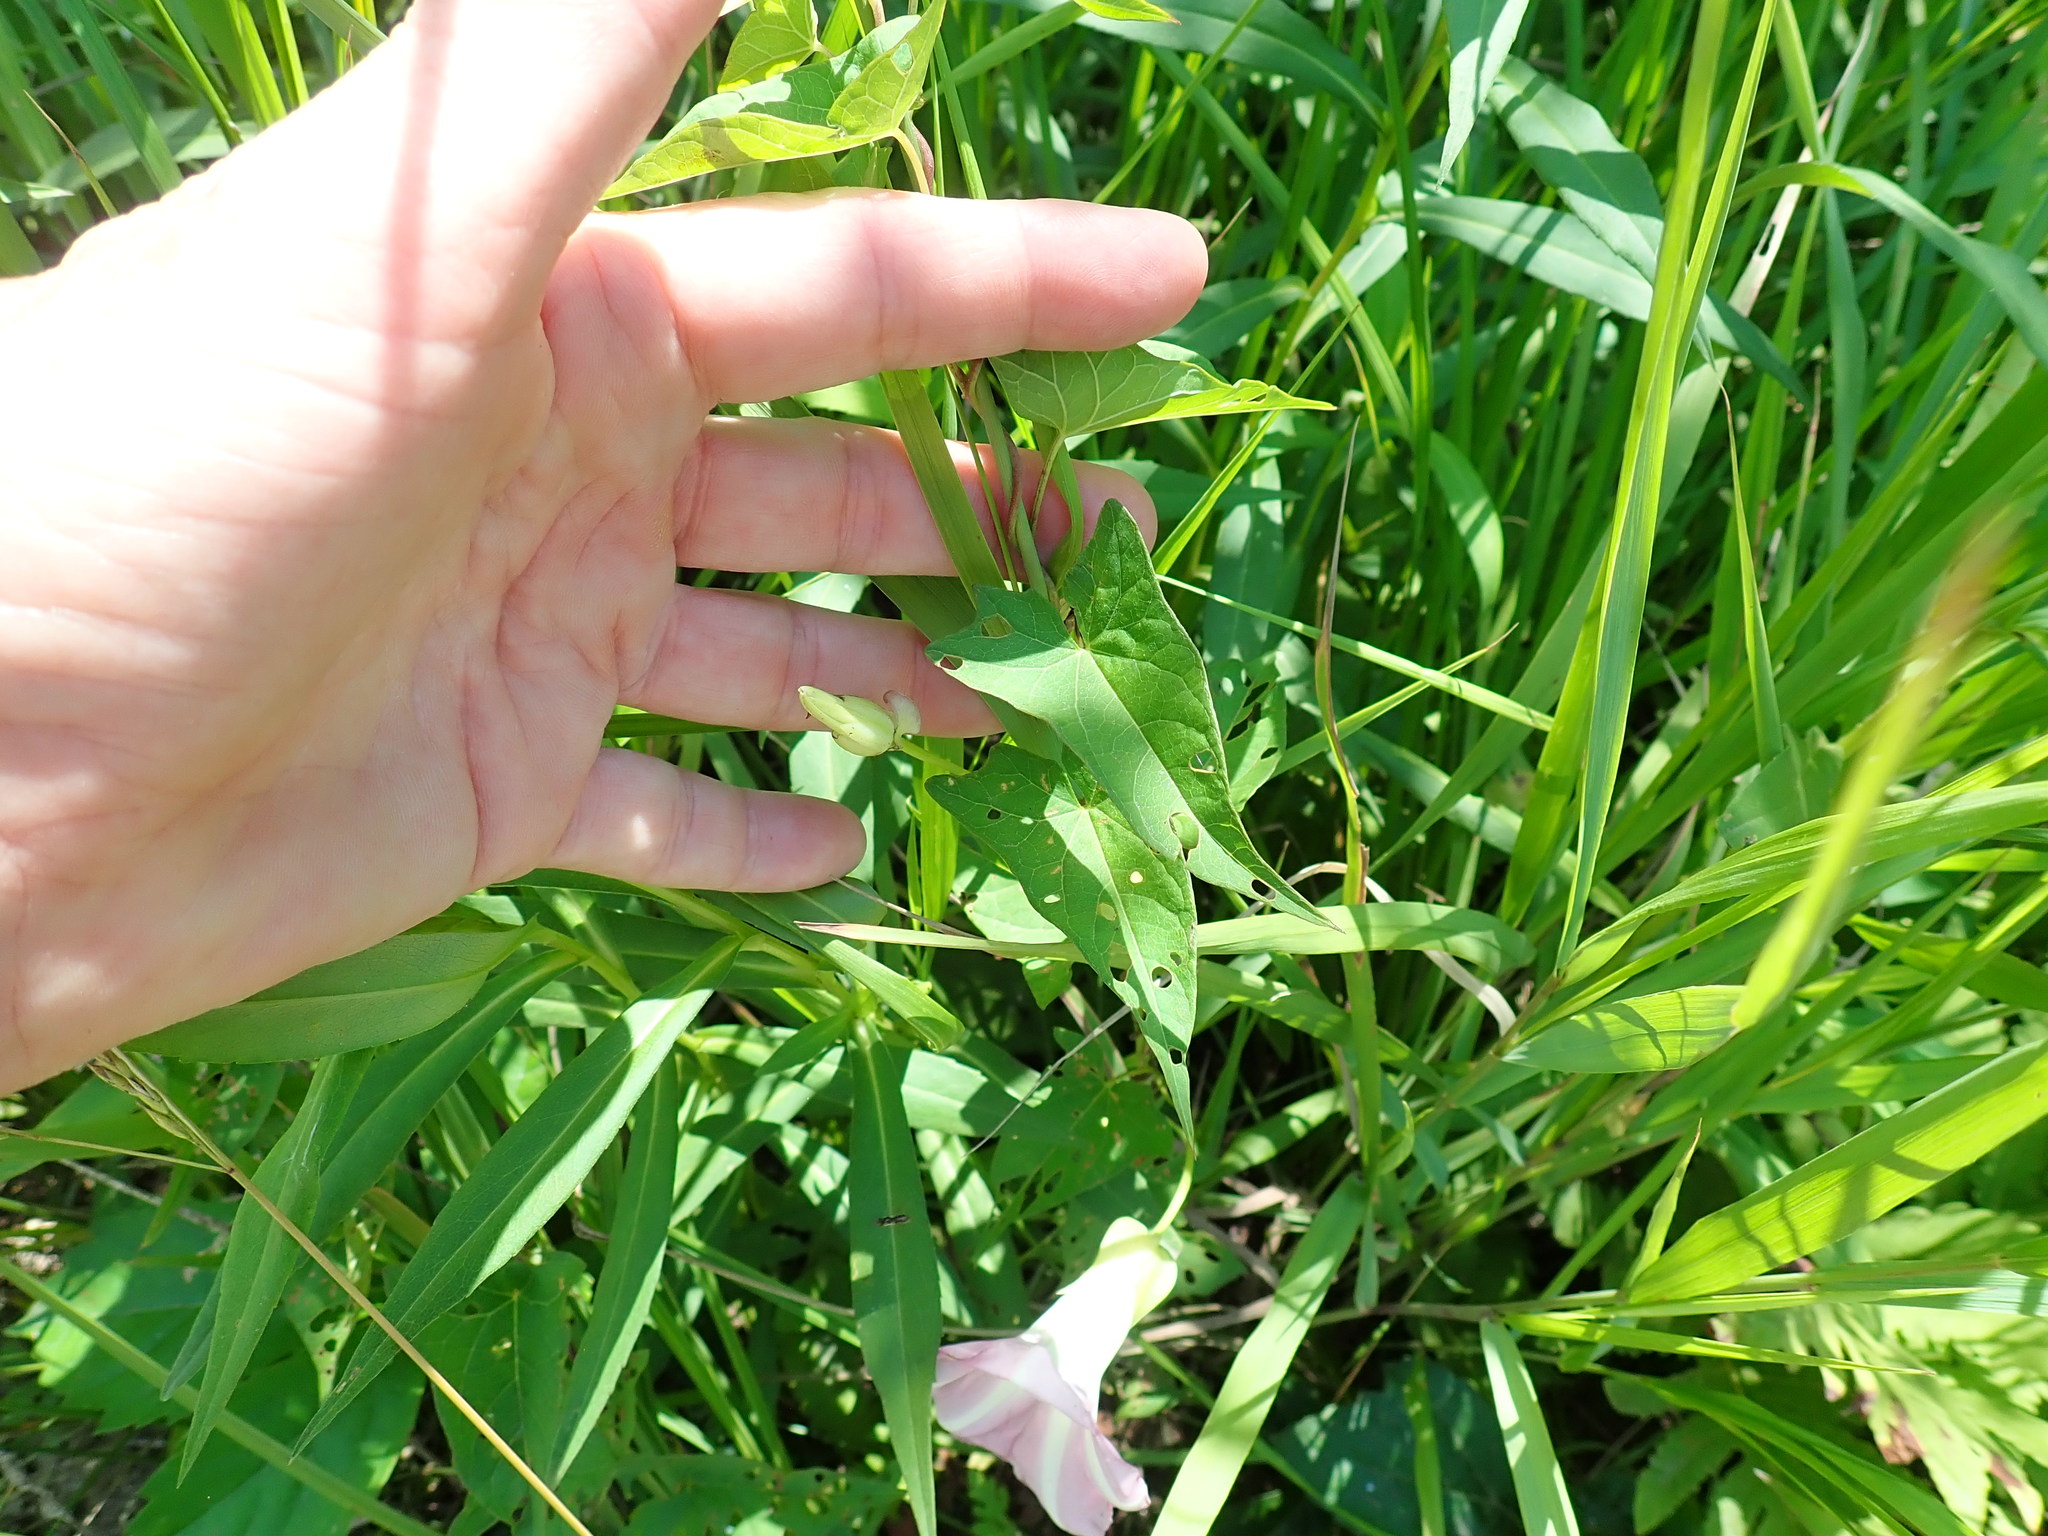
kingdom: Plantae
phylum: Tracheophyta
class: Magnoliopsida
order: Solanales
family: Convolvulaceae
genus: Calystegia
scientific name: Calystegia sepium
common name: Hedge bindweed
